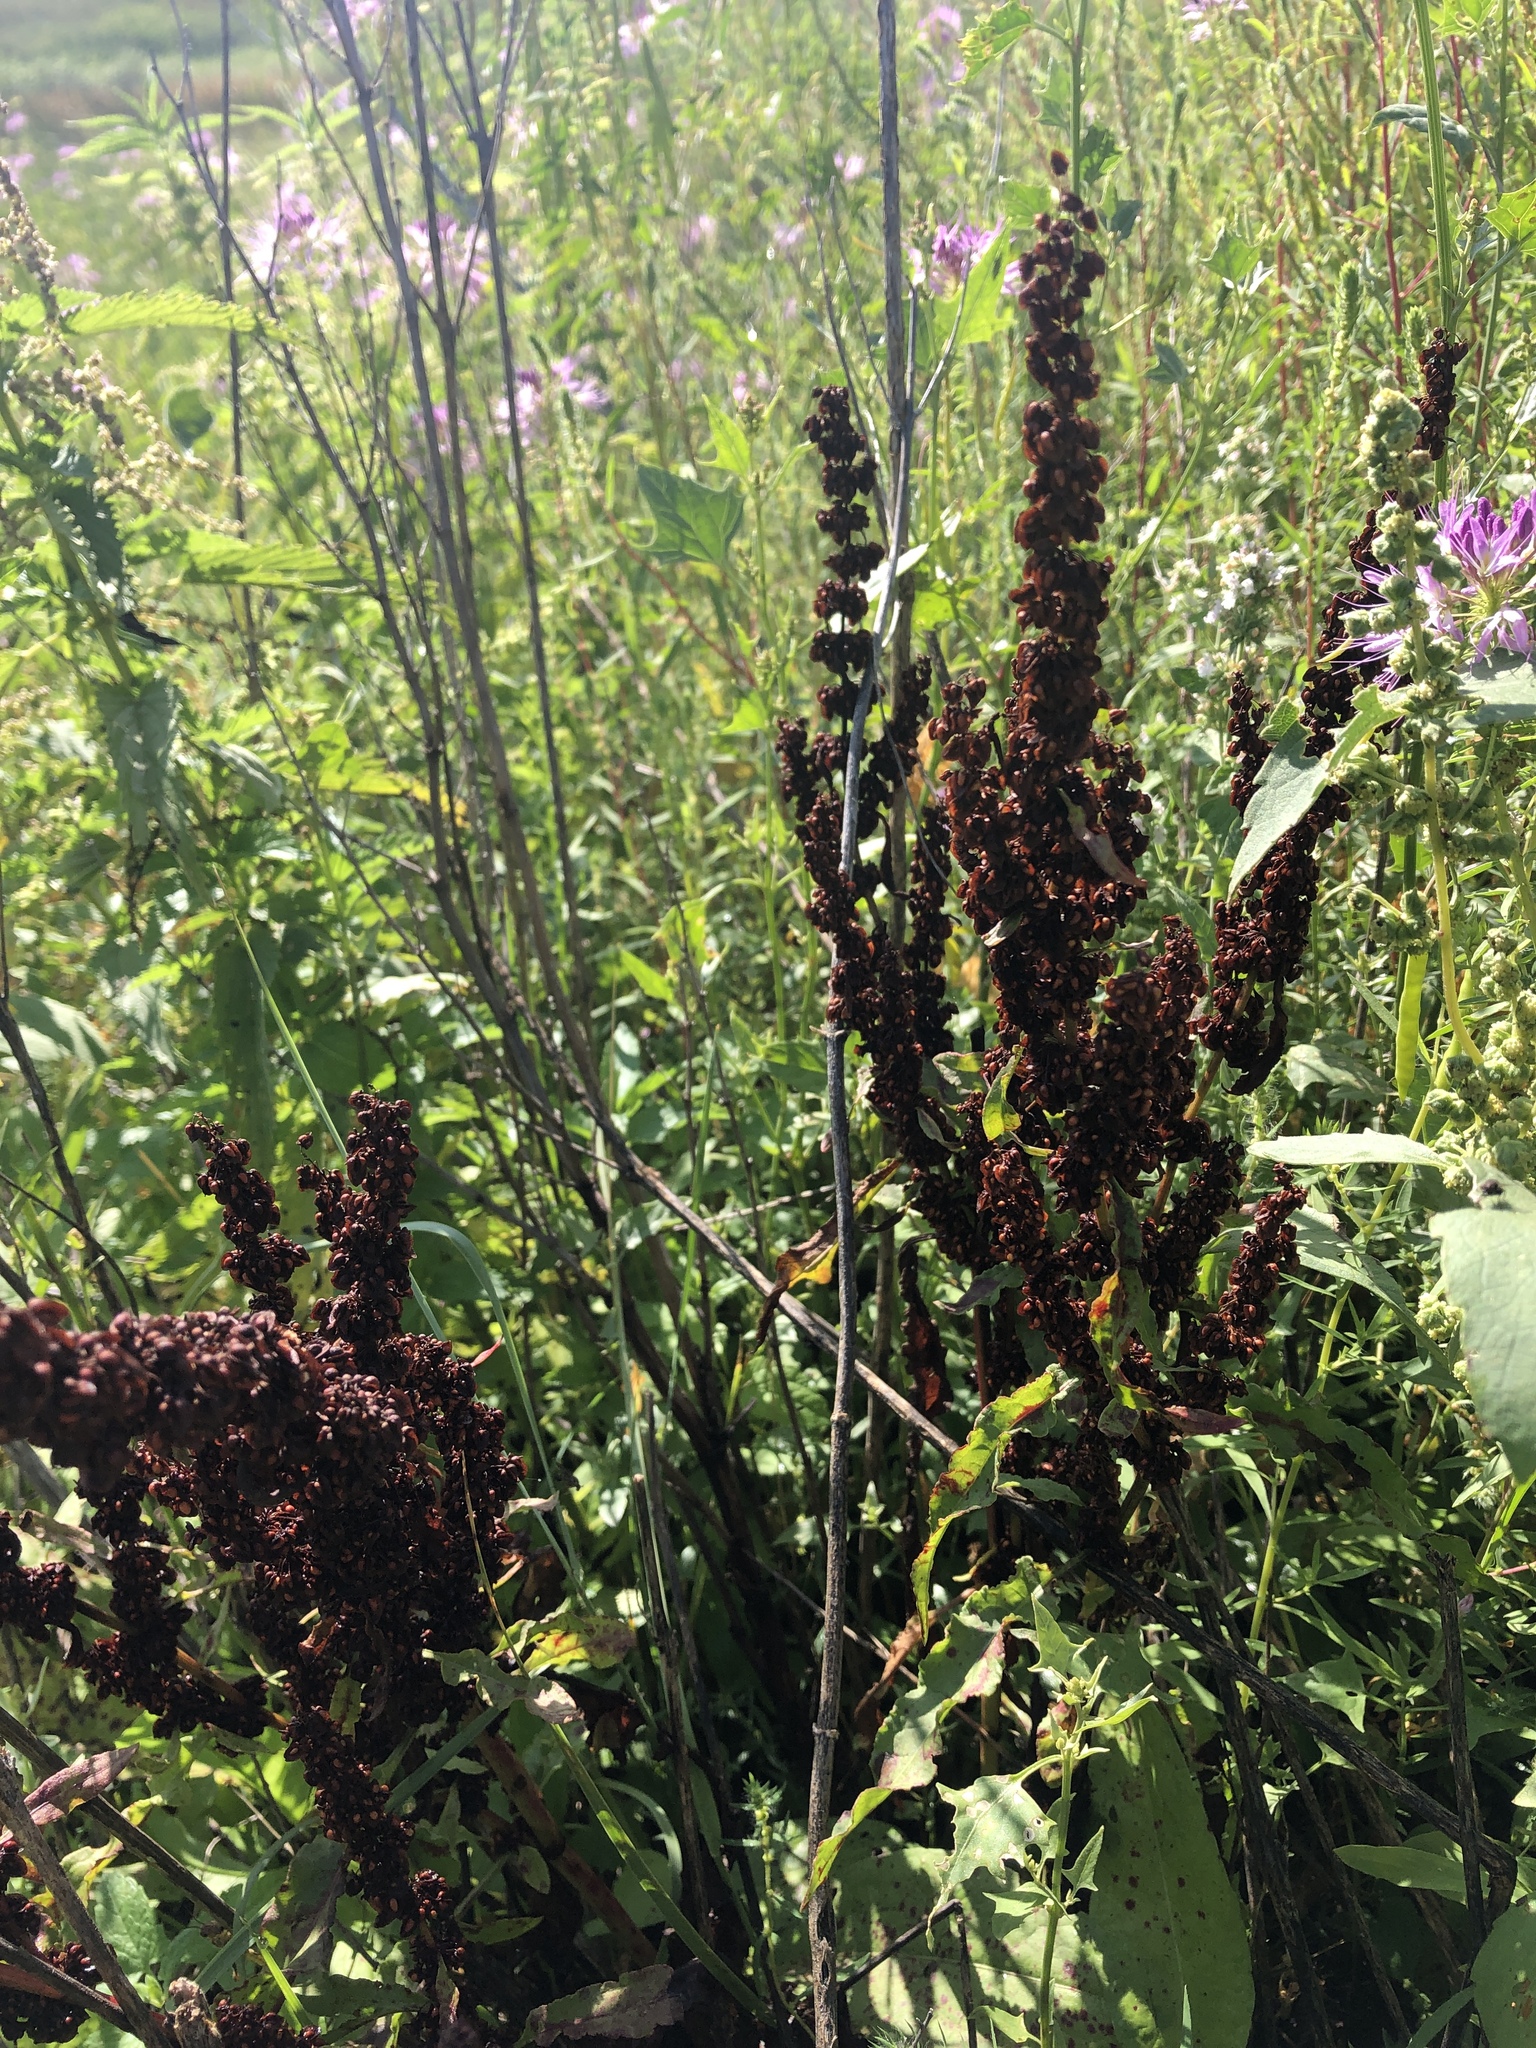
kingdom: Plantae
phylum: Tracheophyta
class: Magnoliopsida
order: Caryophyllales
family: Polygonaceae
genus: Rumex
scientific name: Rumex crispus
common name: Curled dock
